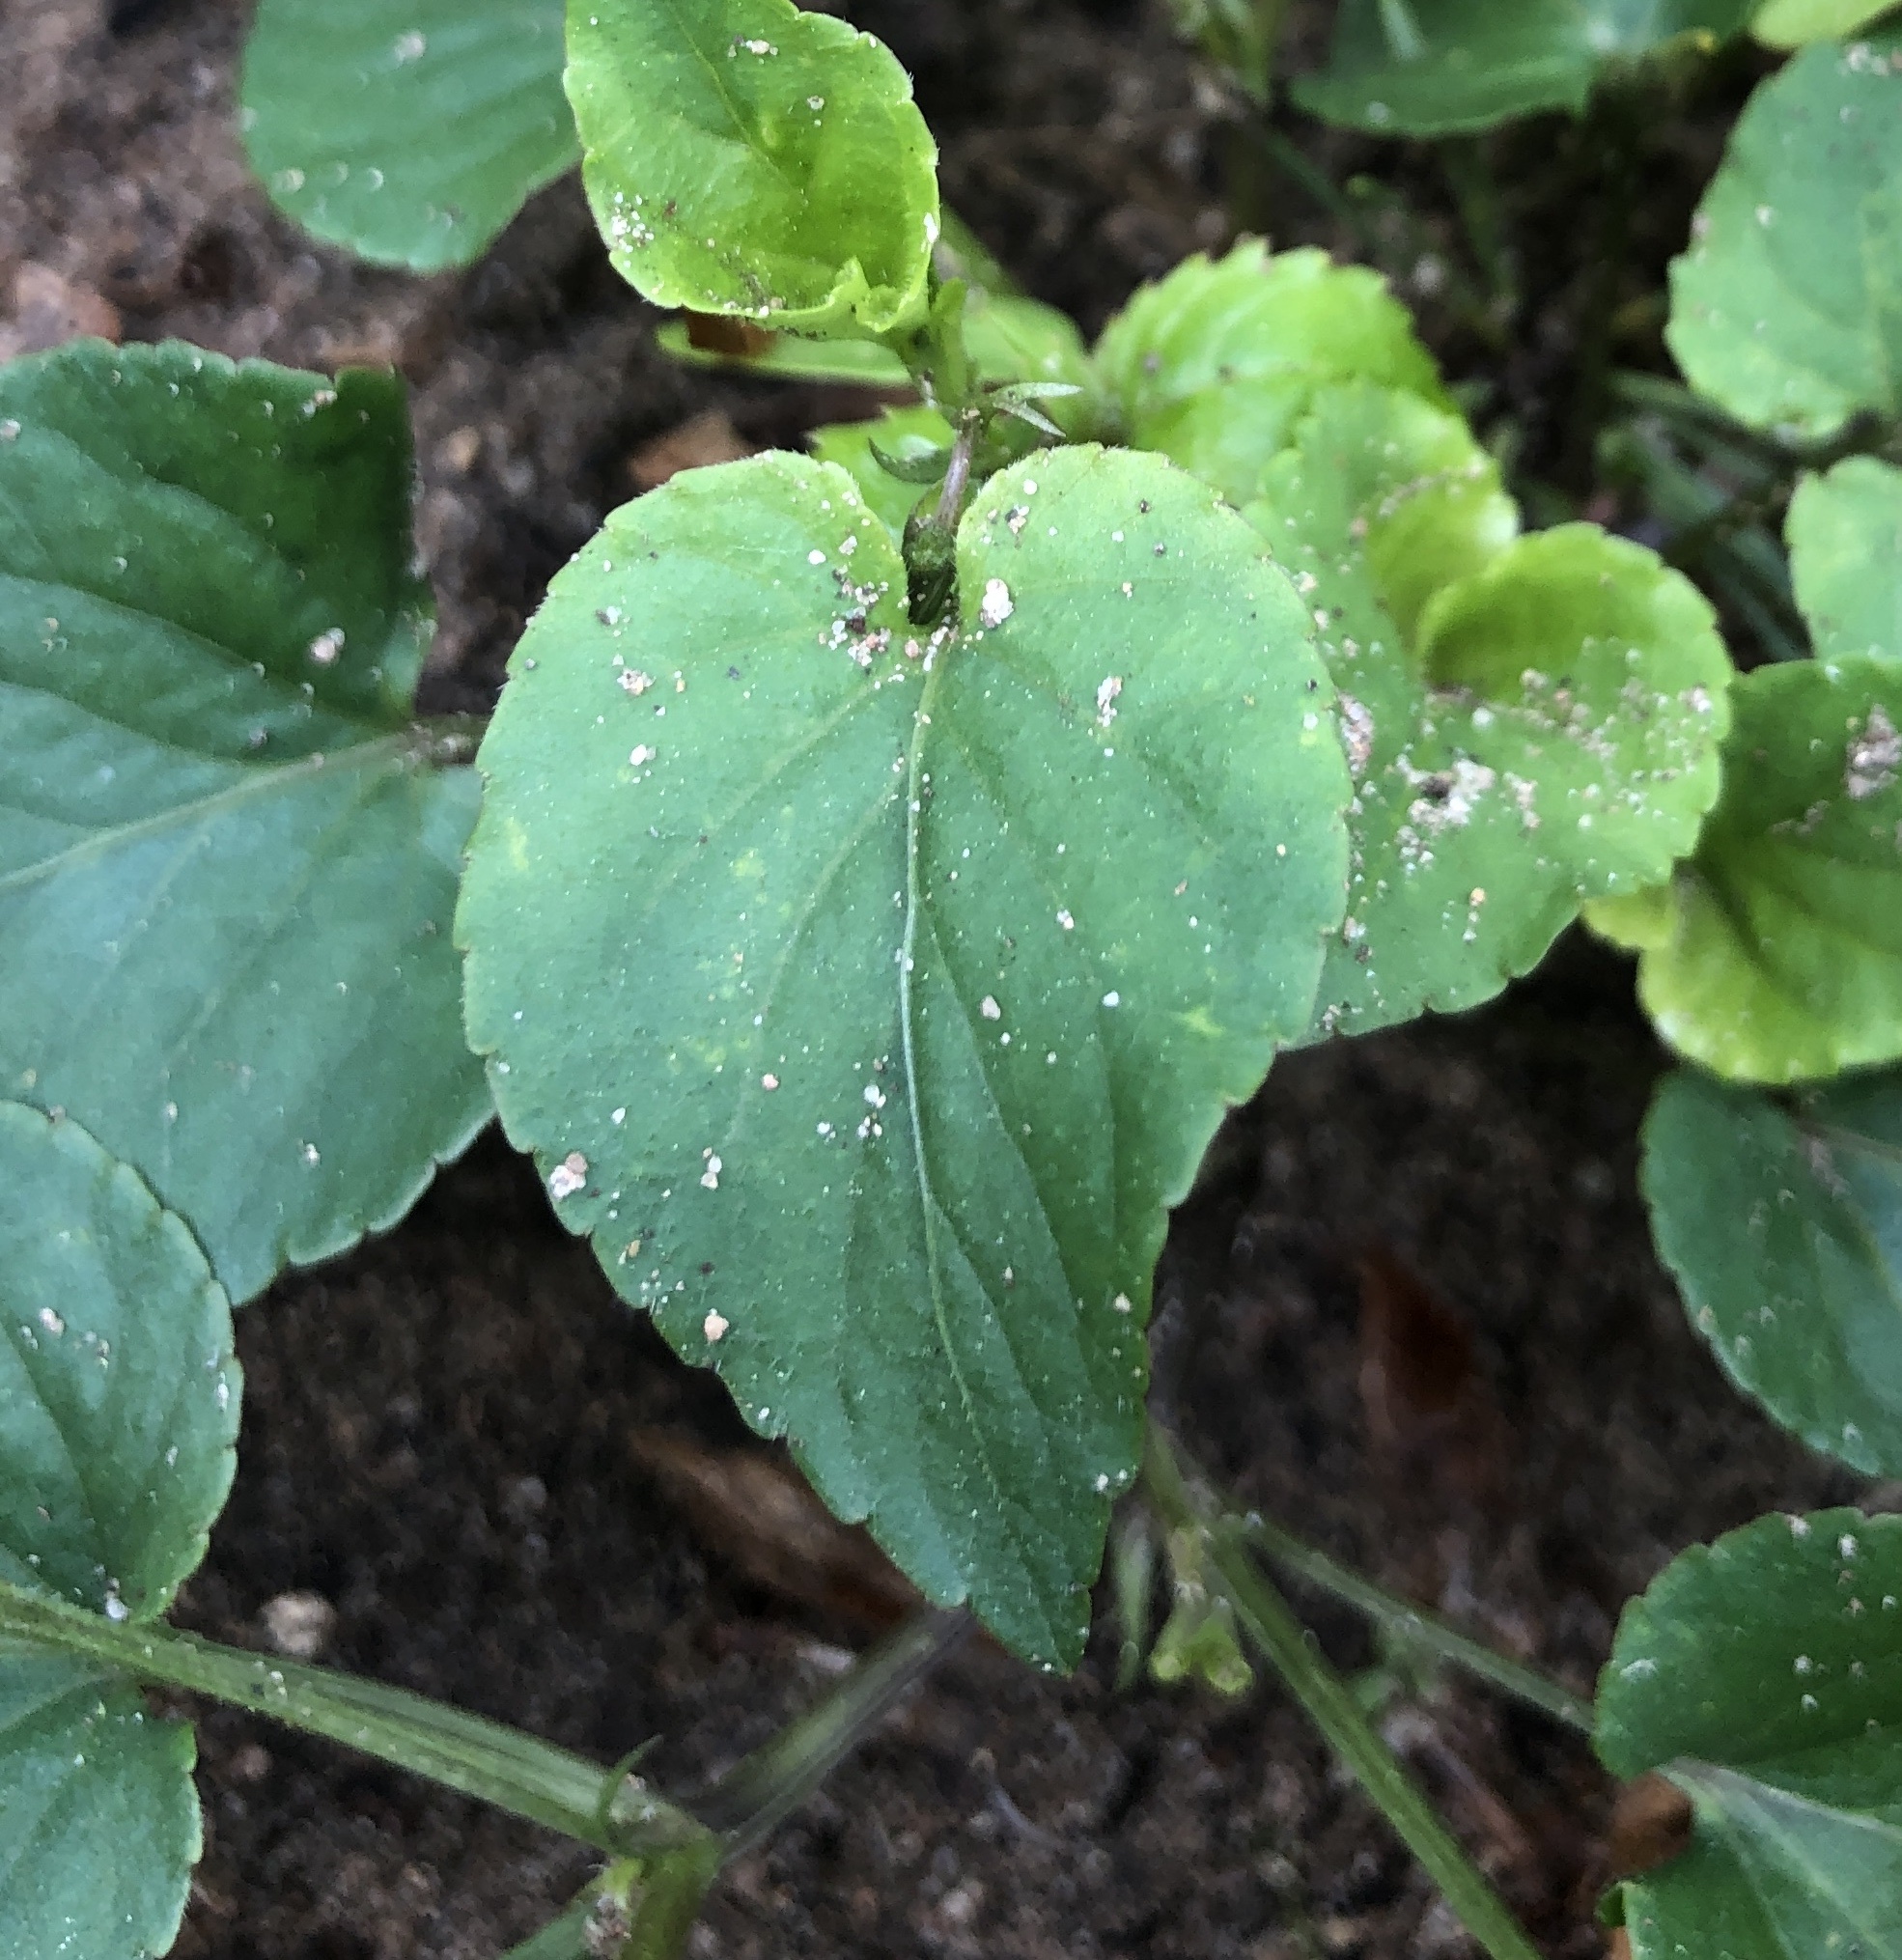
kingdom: Plantae
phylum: Tracheophyta
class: Magnoliopsida
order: Malpighiales
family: Violaceae
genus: Viola
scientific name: Viola riviniana
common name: Common dog-violet
